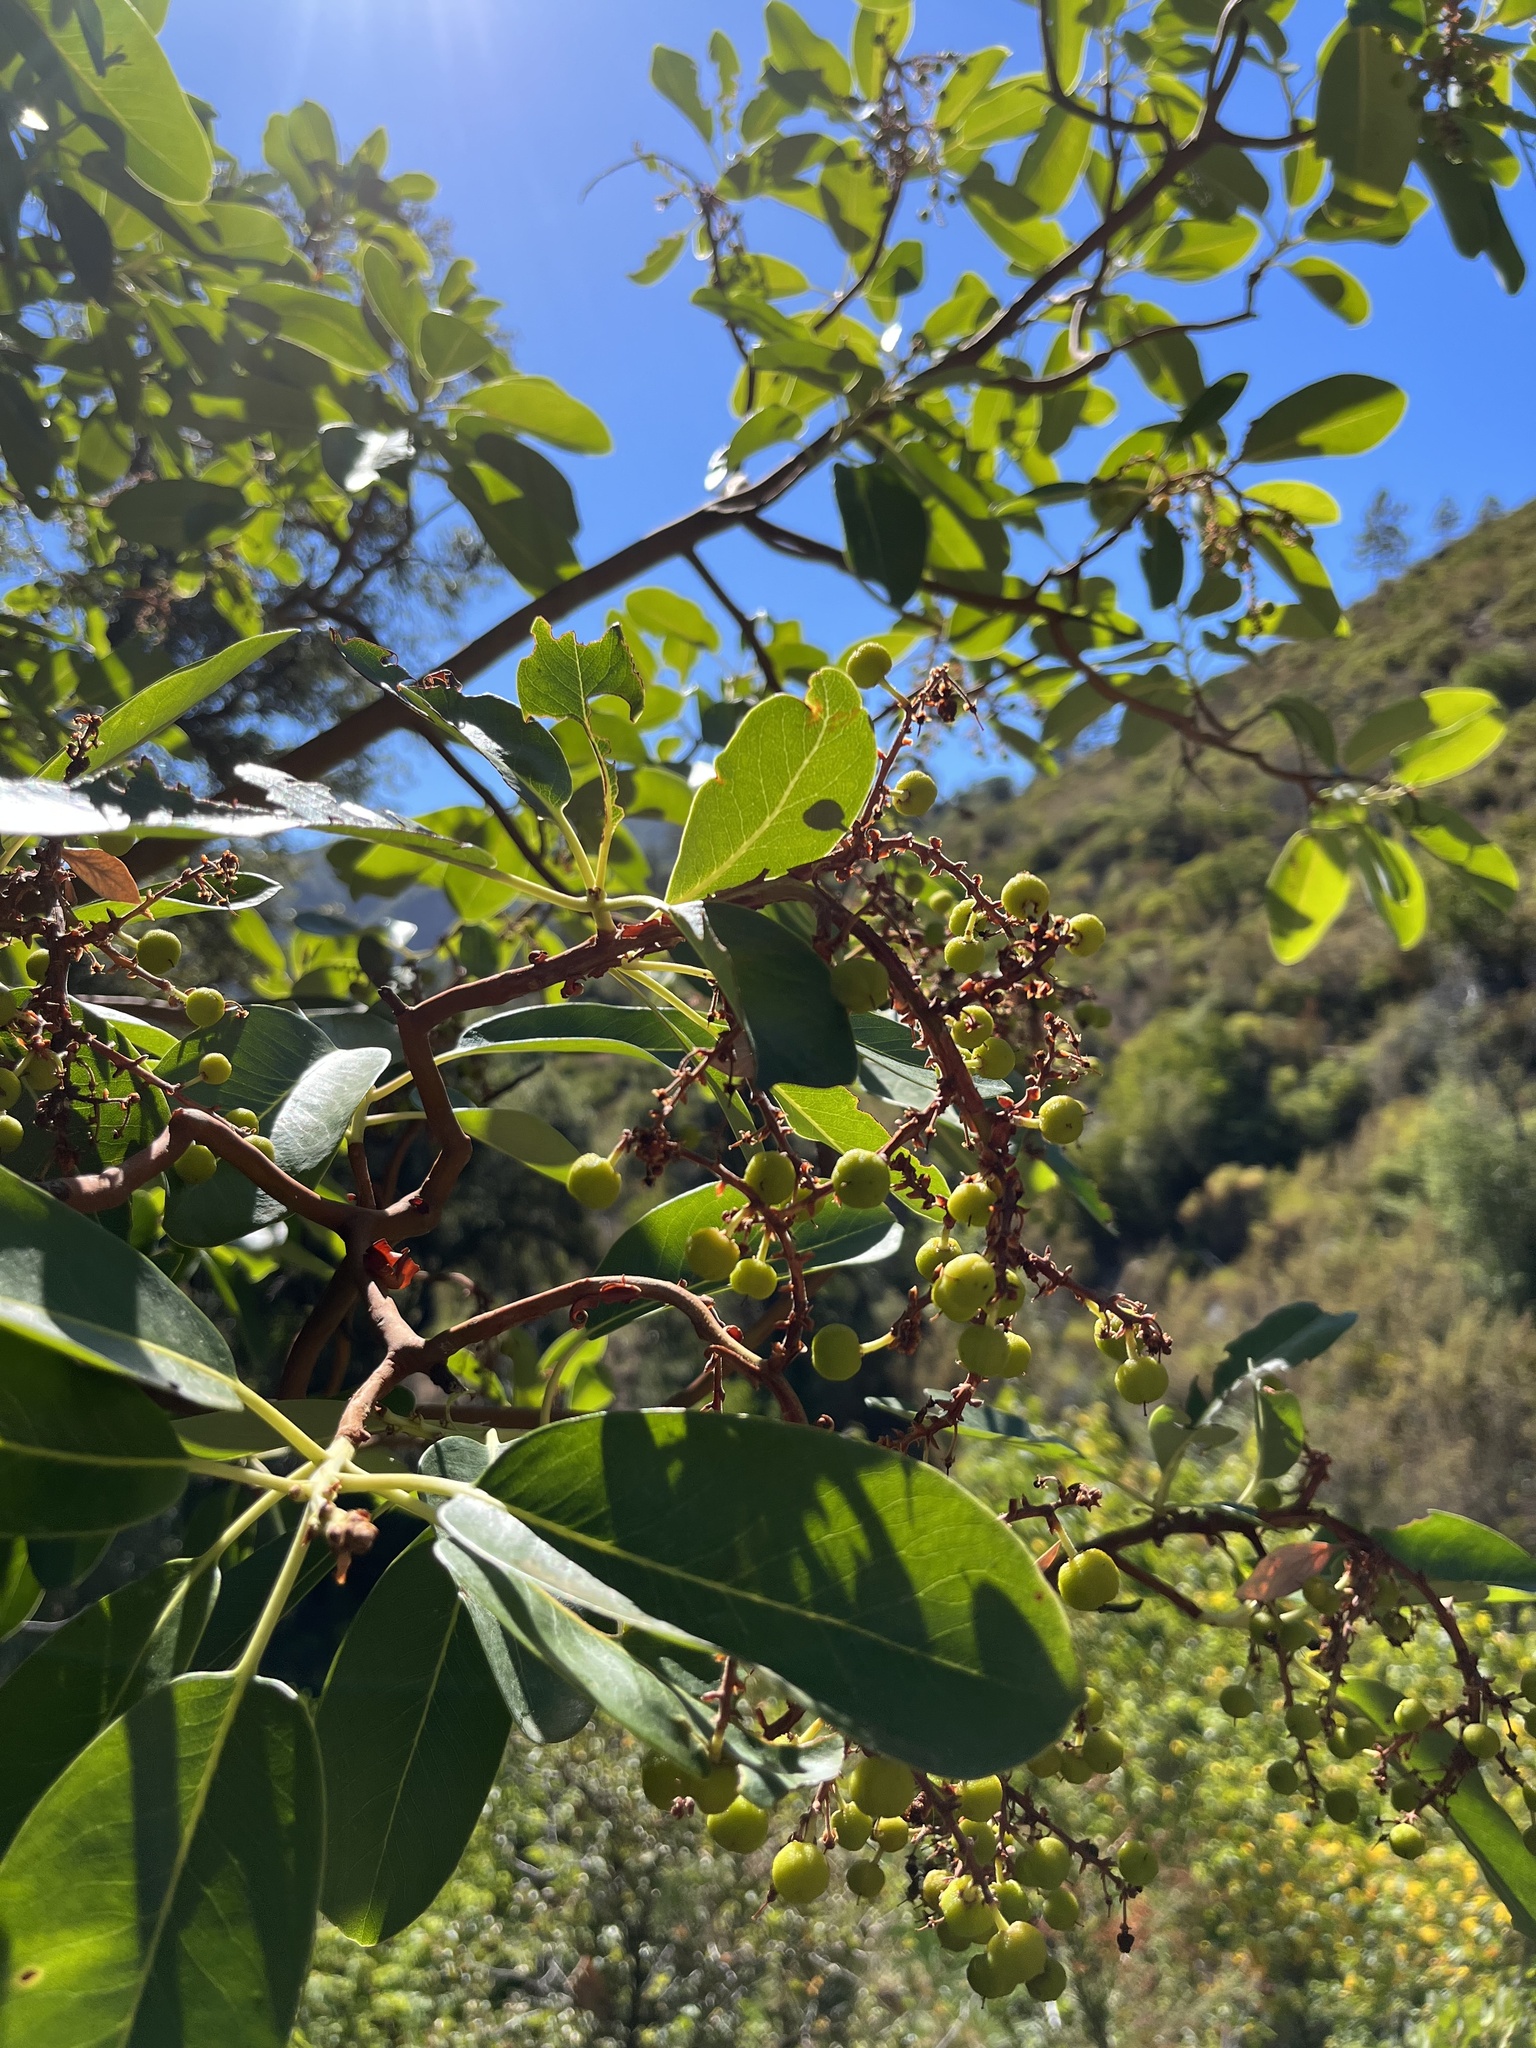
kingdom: Plantae
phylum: Tracheophyta
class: Magnoliopsida
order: Ericales
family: Ericaceae
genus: Arbutus
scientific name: Arbutus menziesii
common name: Pacific madrone
